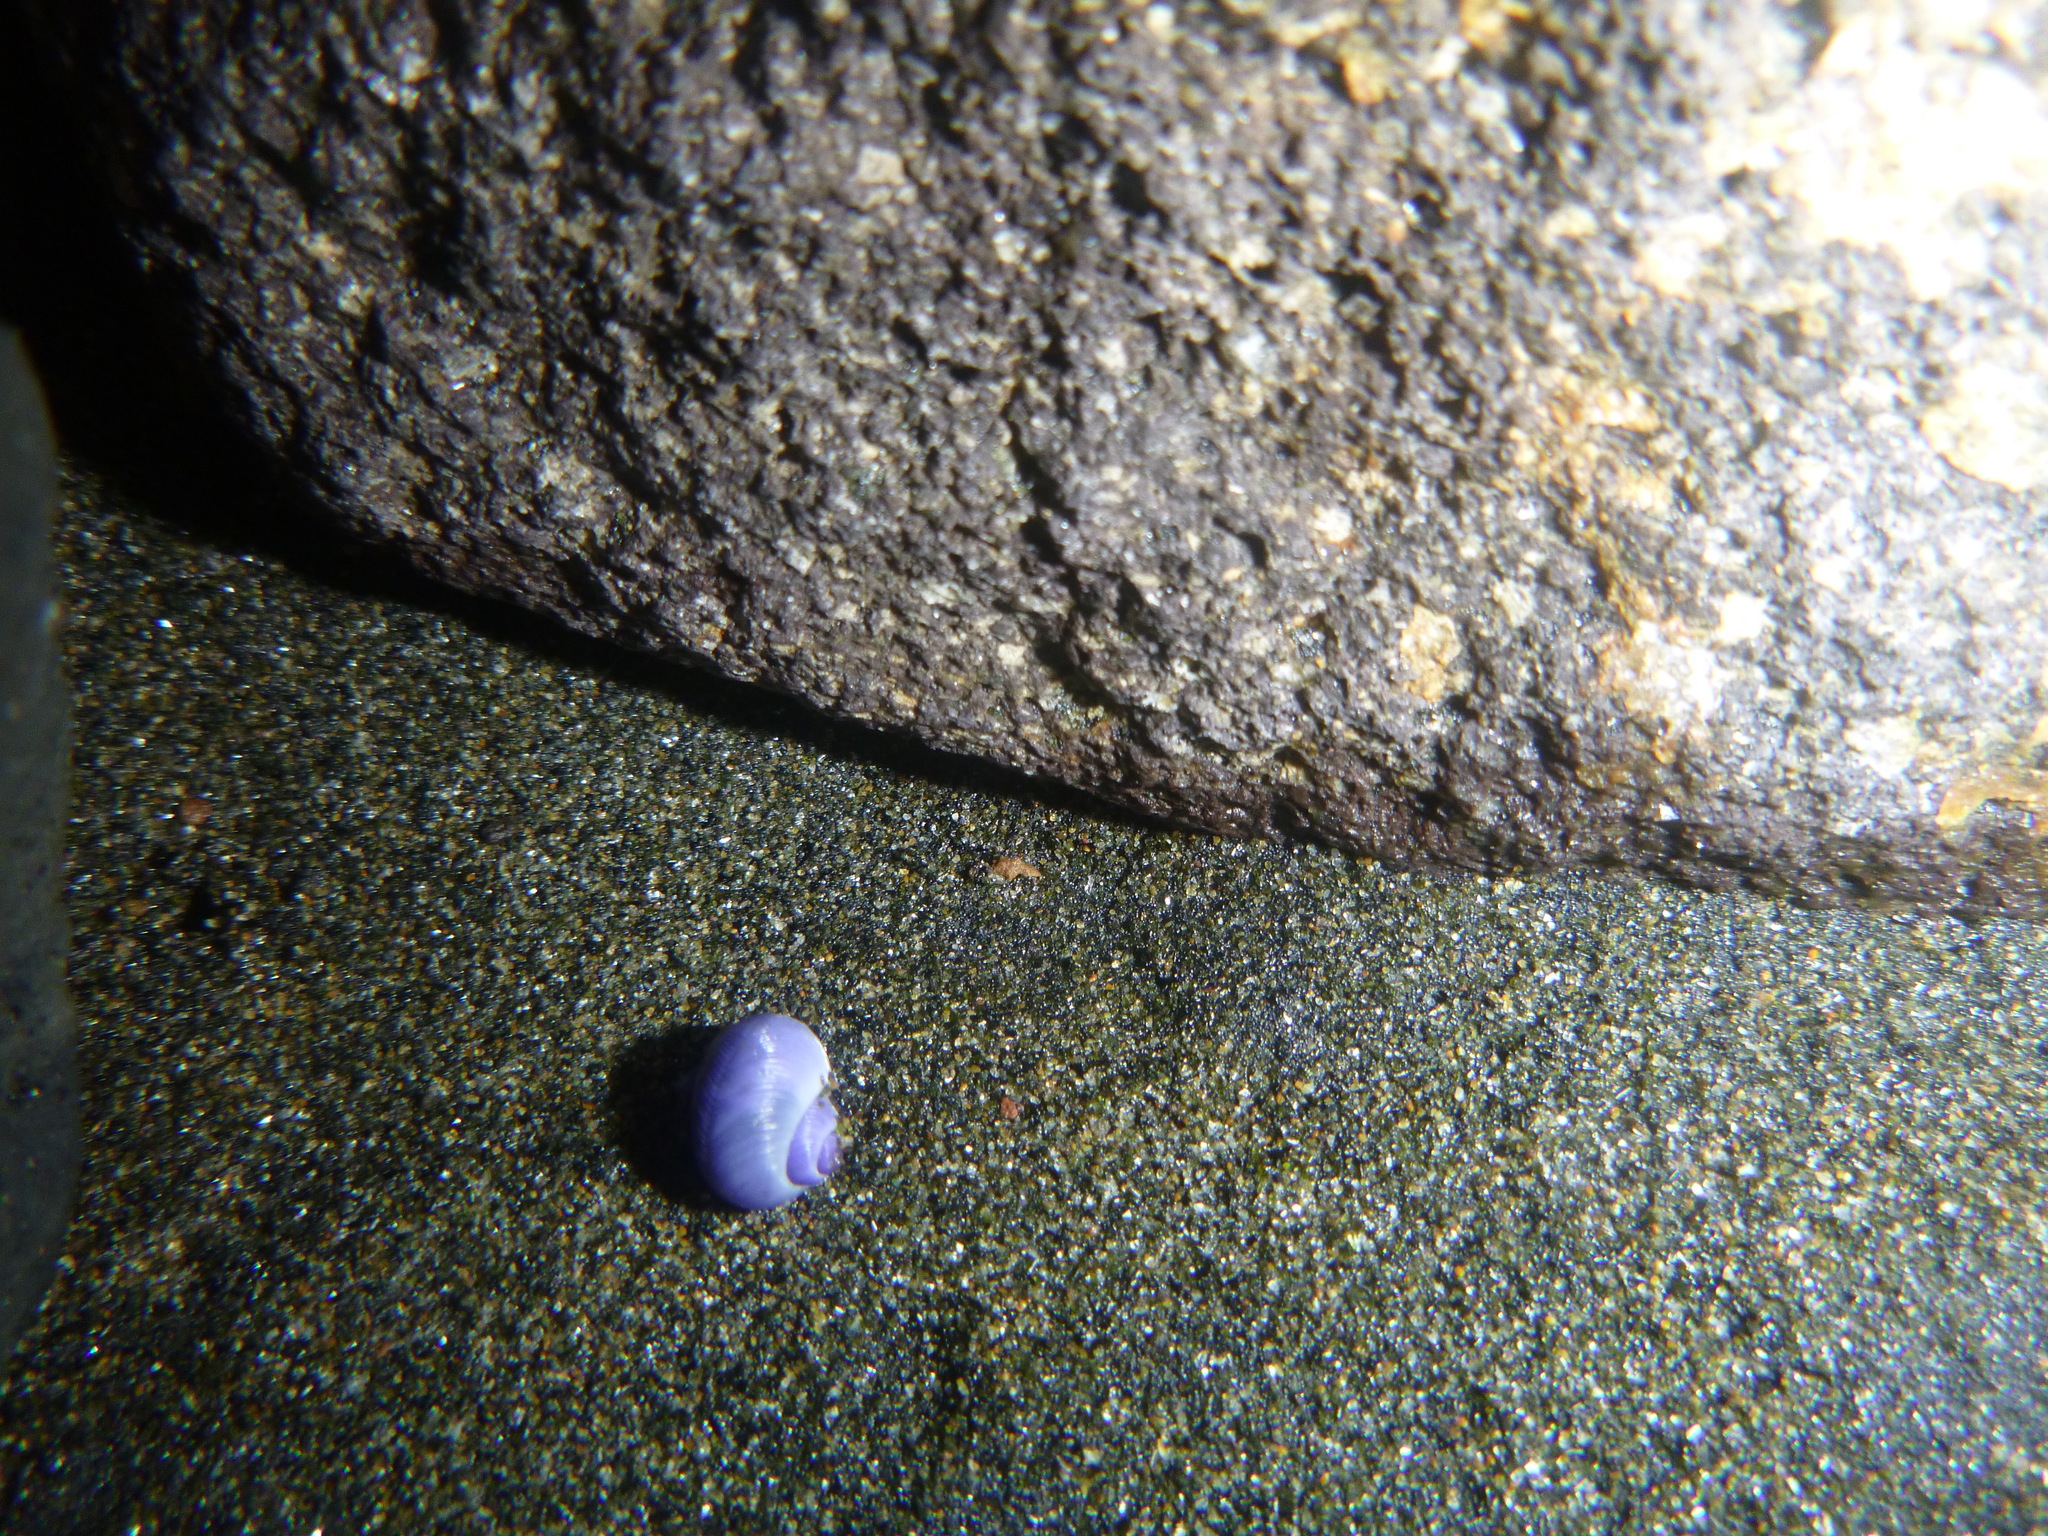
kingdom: Animalia
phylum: Mollusca
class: Gastropoda
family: Epitoniidae
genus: Janthina
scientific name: Janthina exigua
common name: Dwarf janthina
